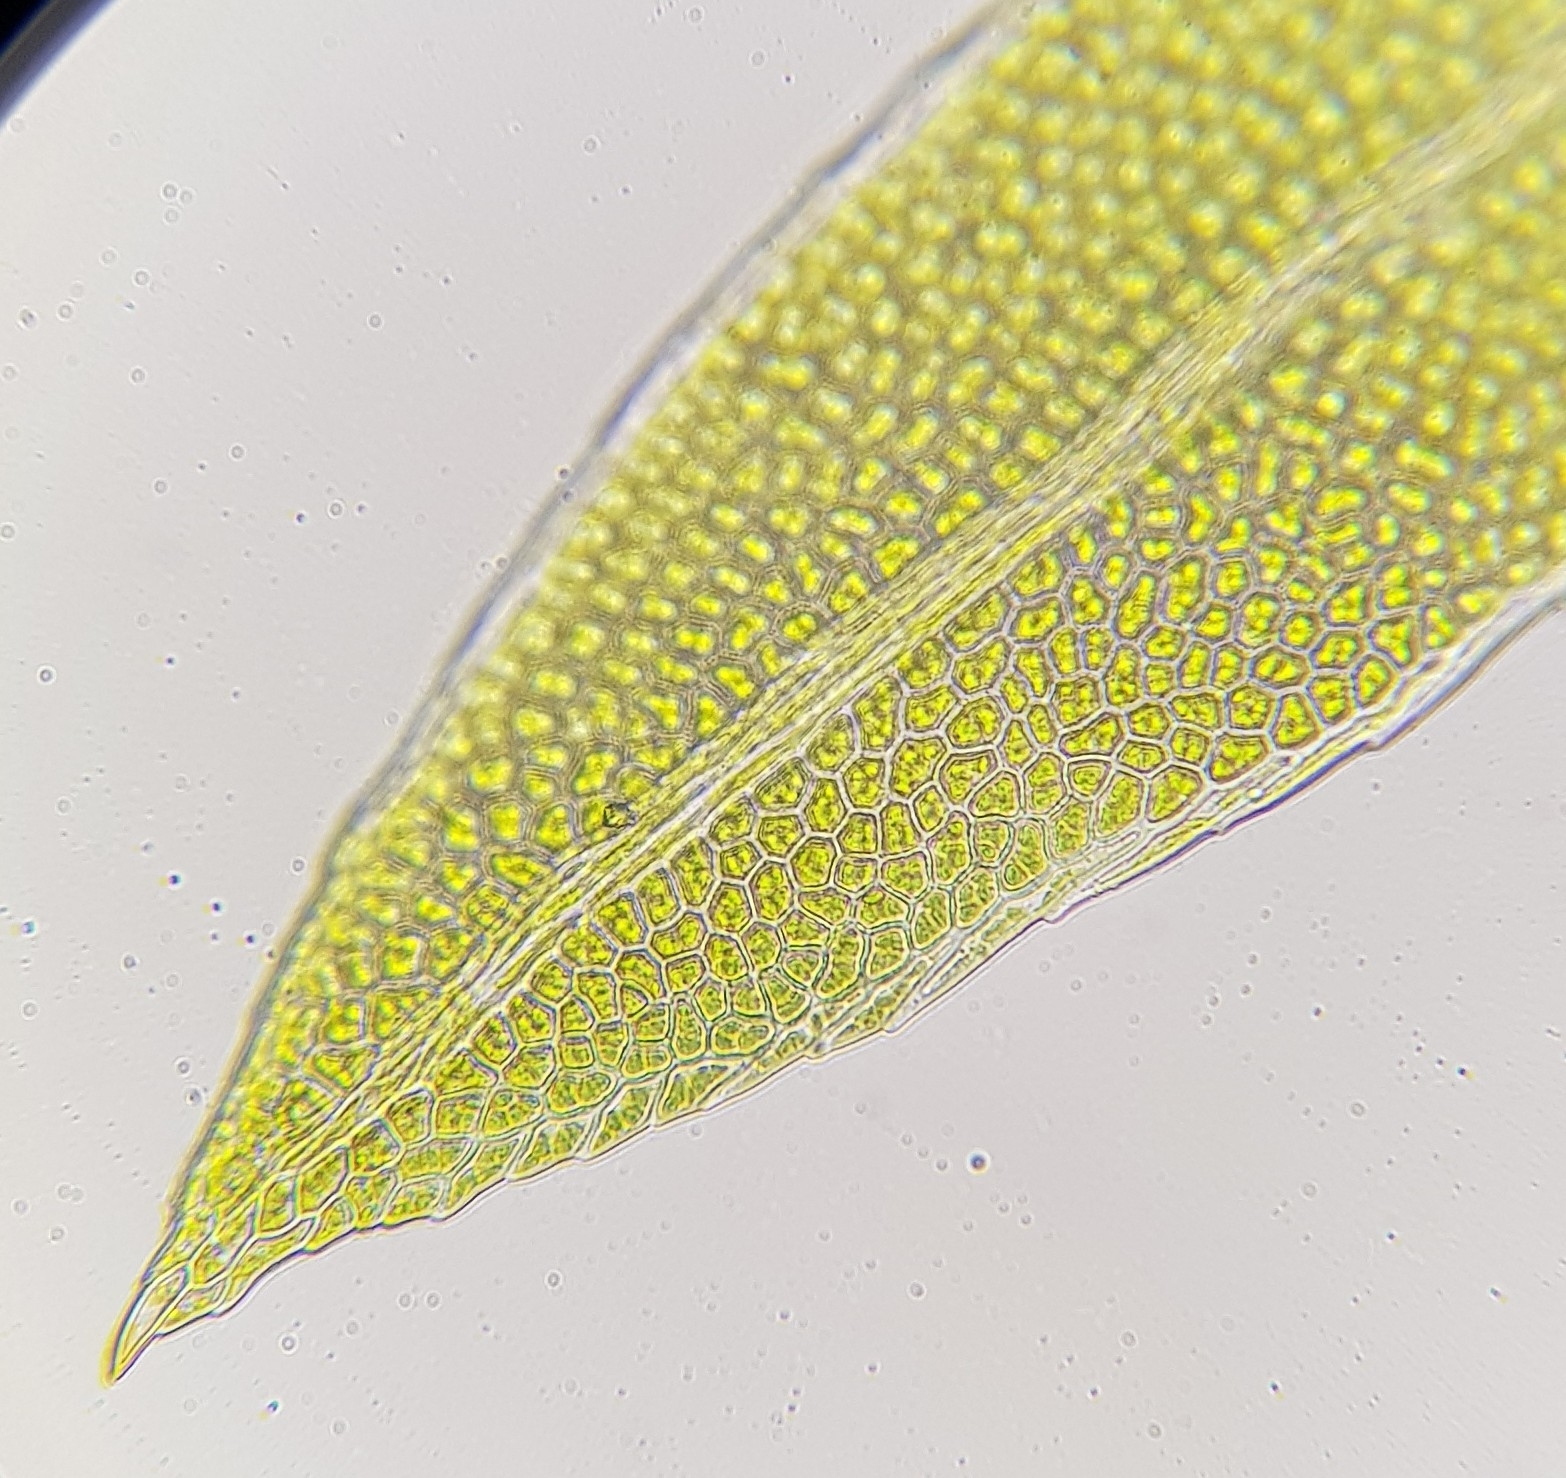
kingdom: Plantae
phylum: Bryophyta
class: Bryopsida
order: Dicranales
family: Fissidentaceae
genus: Fissidens
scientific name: Fissidens pusillus
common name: Petty pocket-moss
